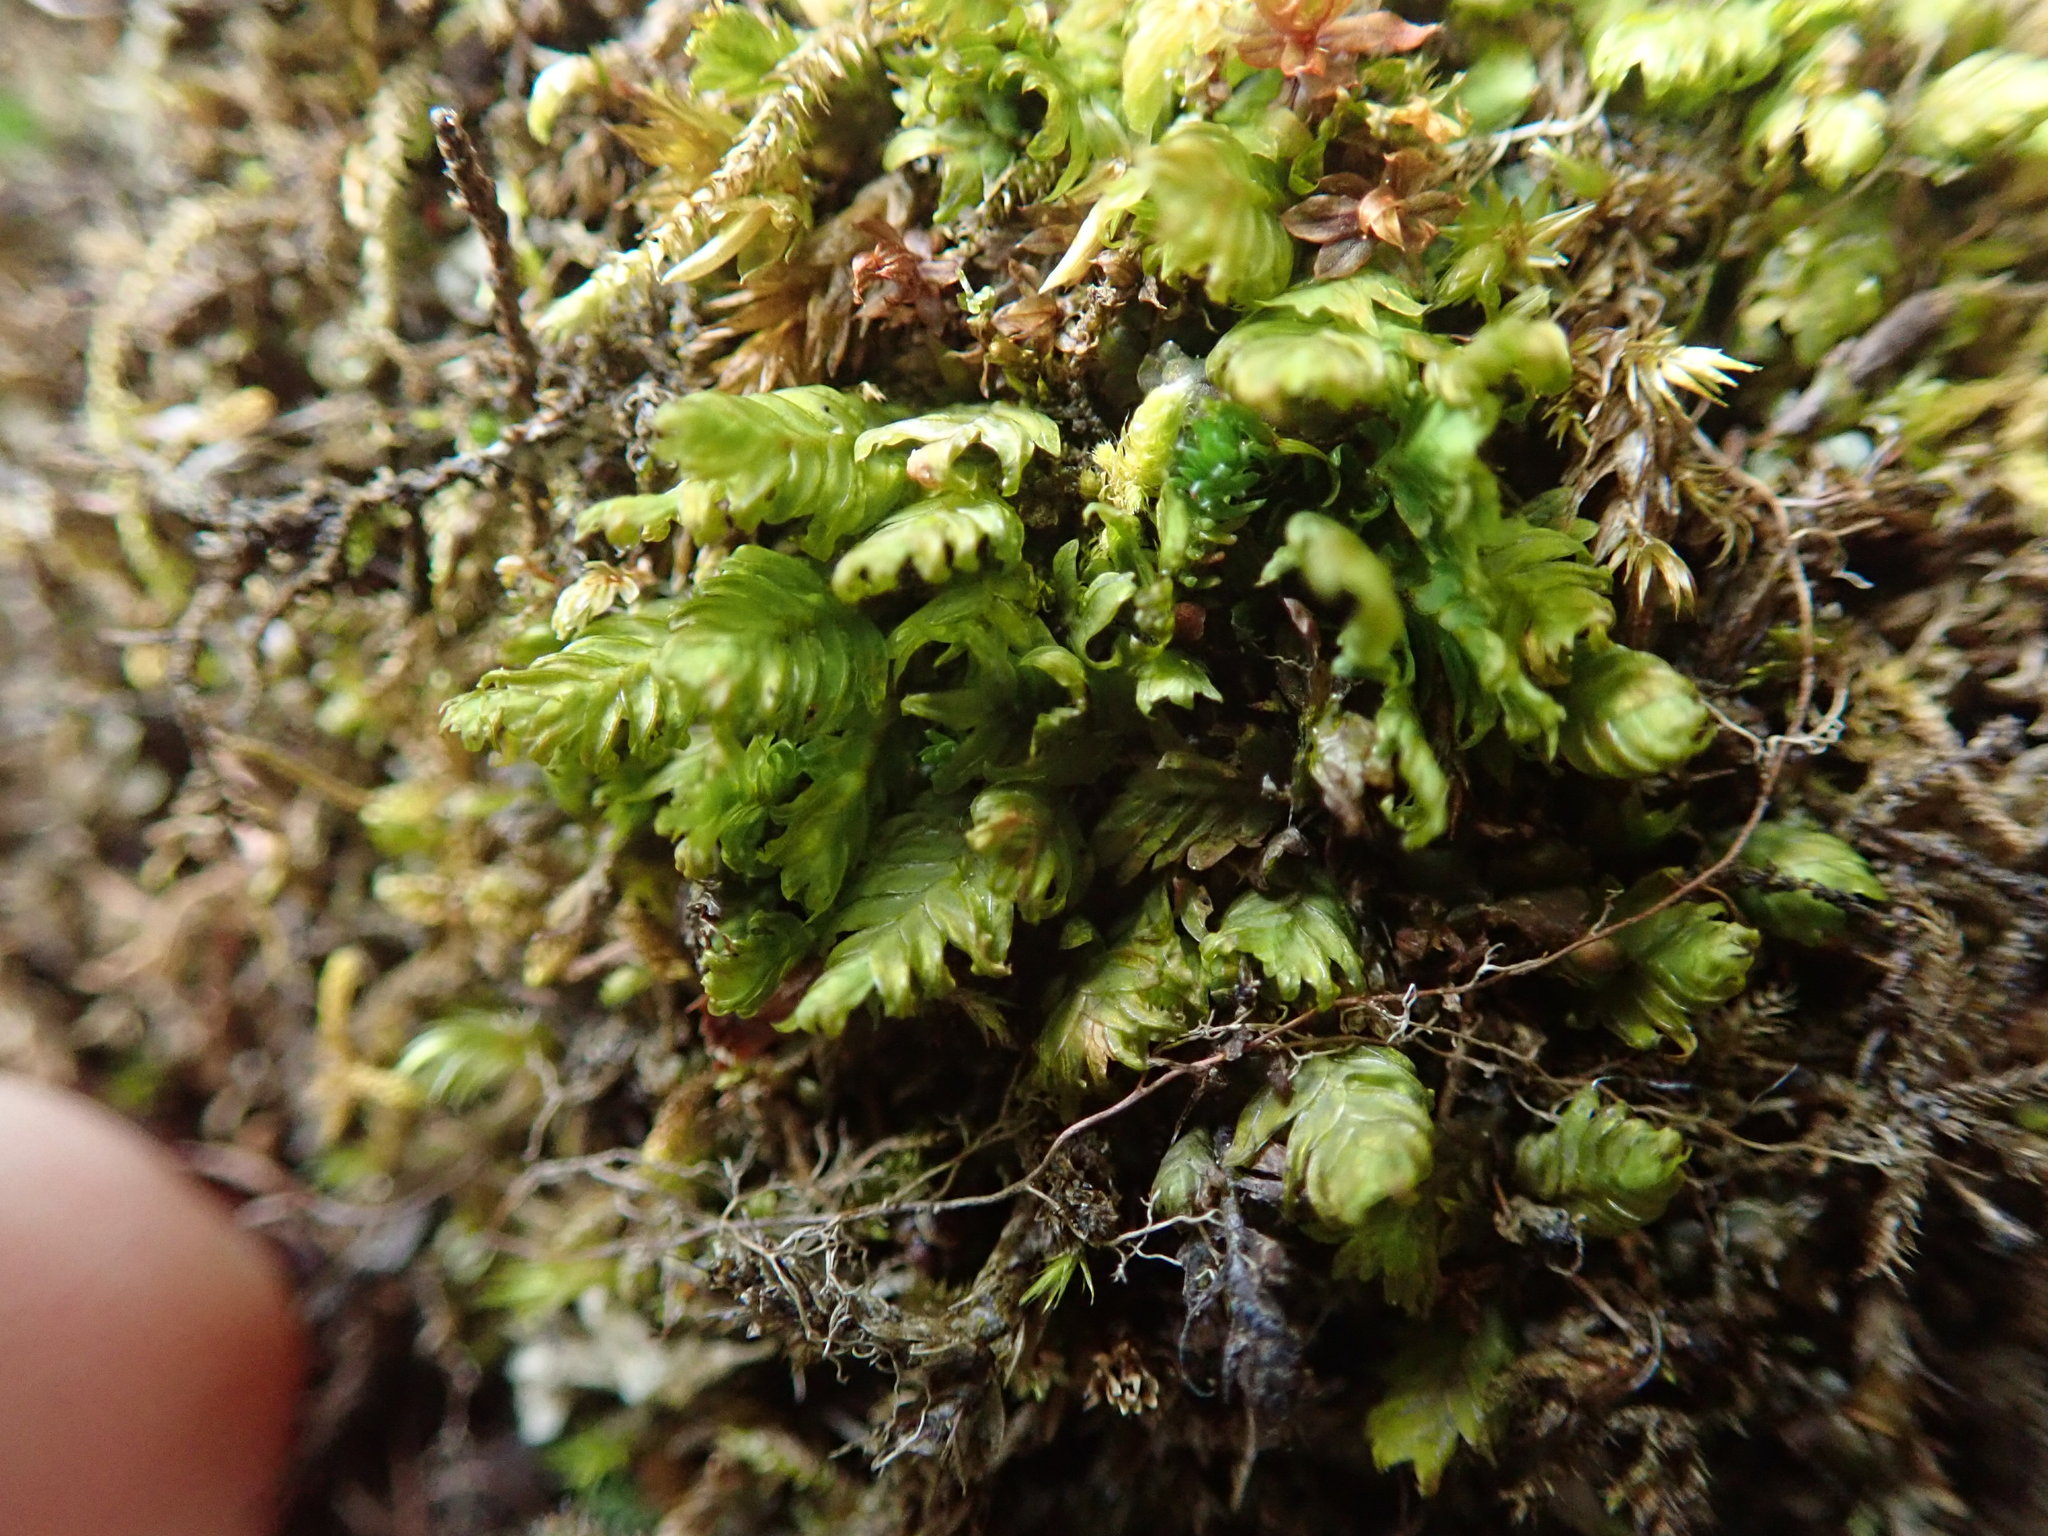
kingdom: Plantae
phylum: Bryophyta
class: Bryopsida
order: Dicranales
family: Fissidentaceae
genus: Fissidens
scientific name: Fissidens adianthoides
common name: Maidenhair pocket moss
